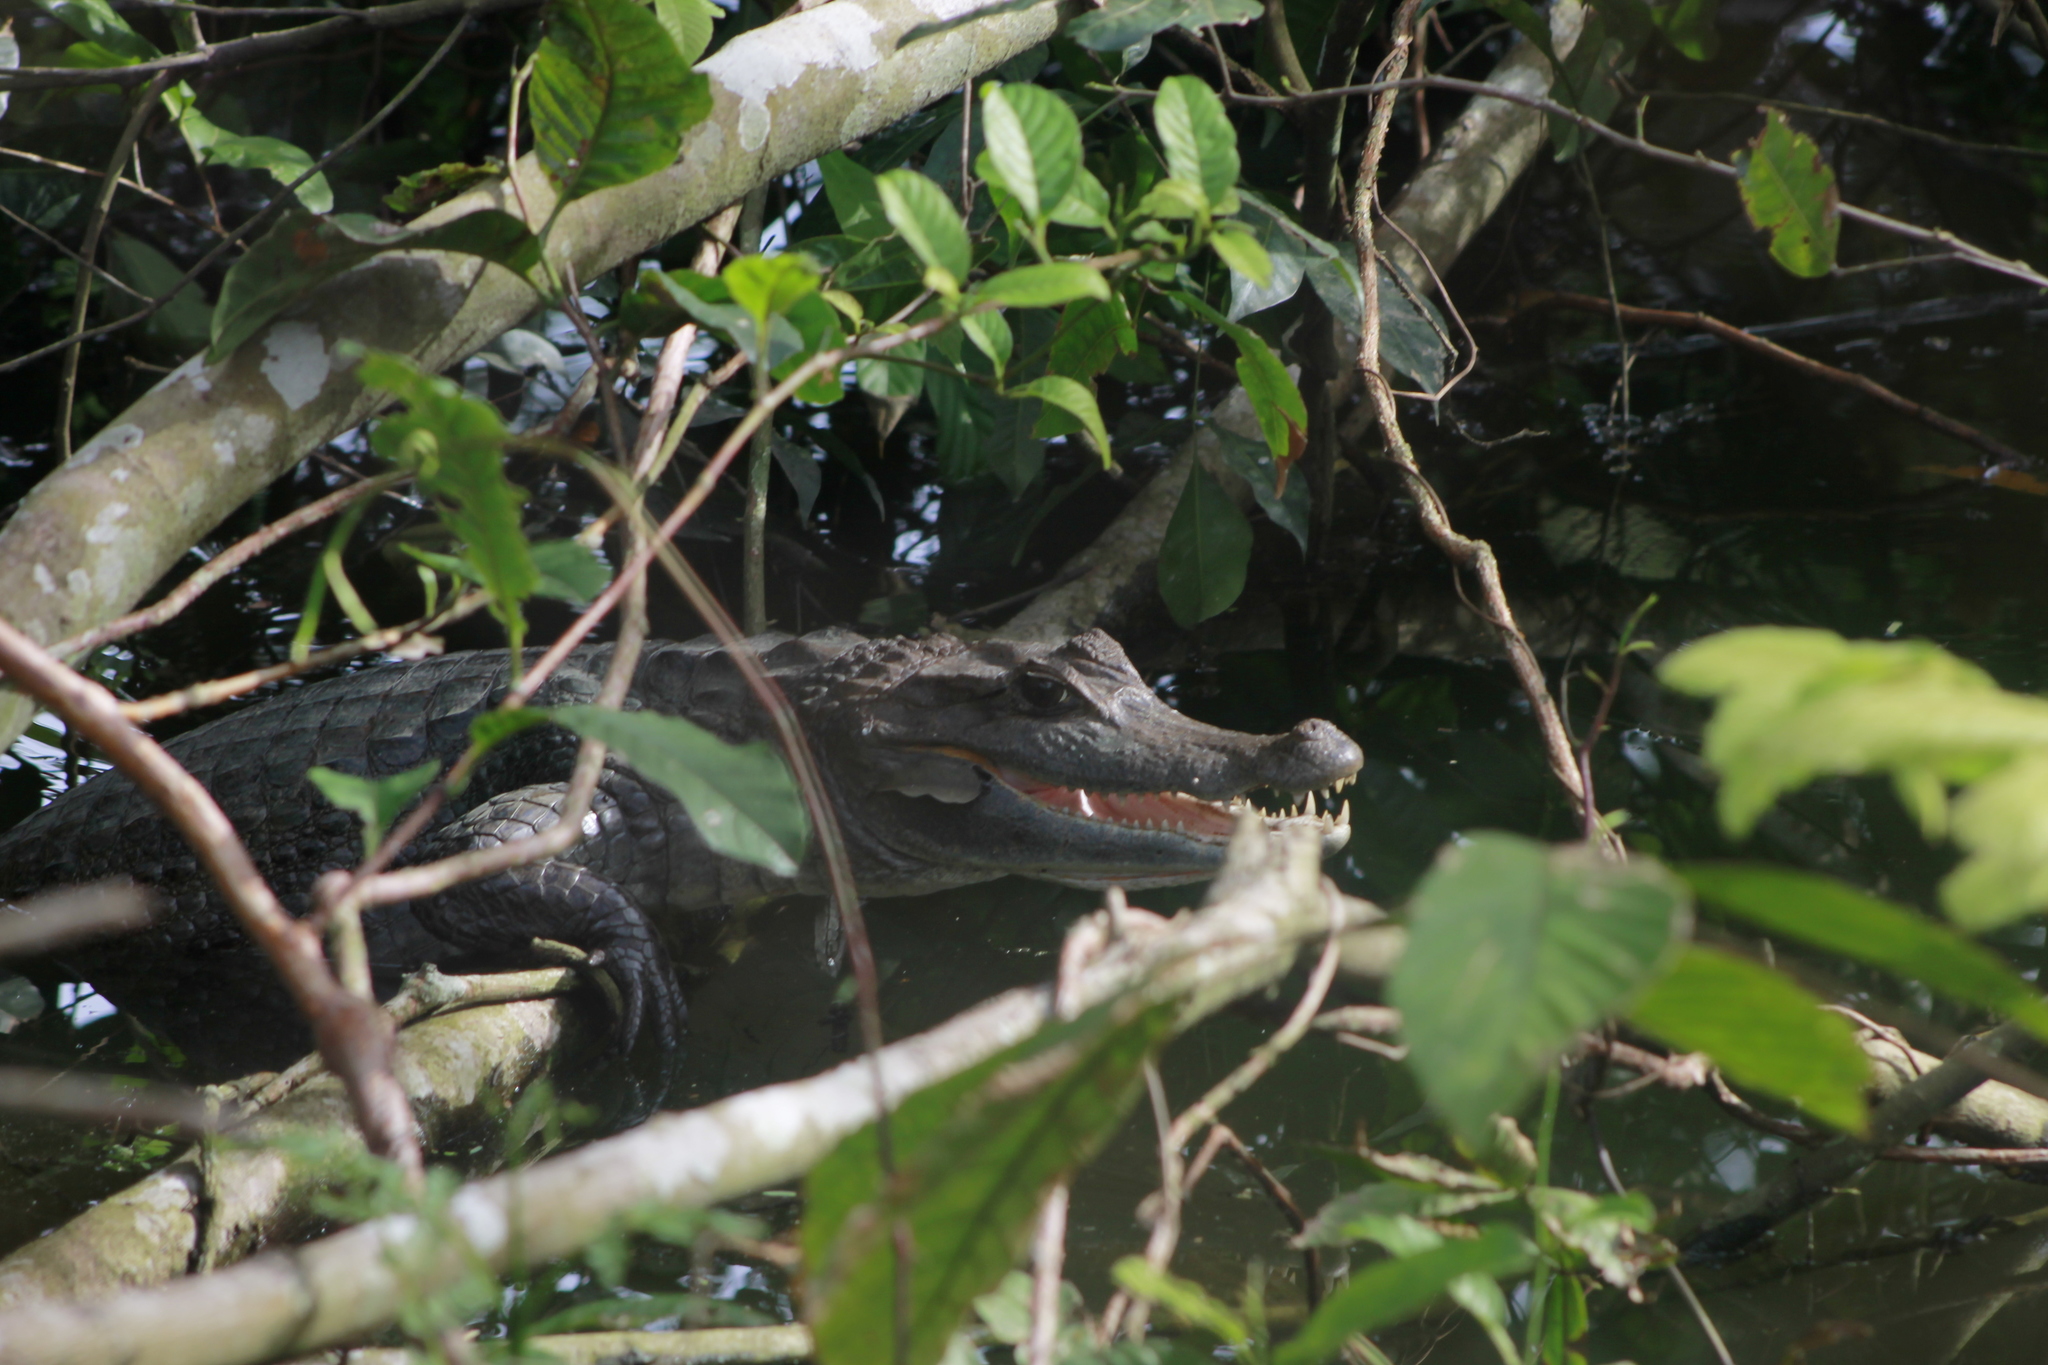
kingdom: Animalia
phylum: Chordata
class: Crocodylia
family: Alligatoridae
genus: Caiman
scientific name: Caiman crocodilus
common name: Common caiman
